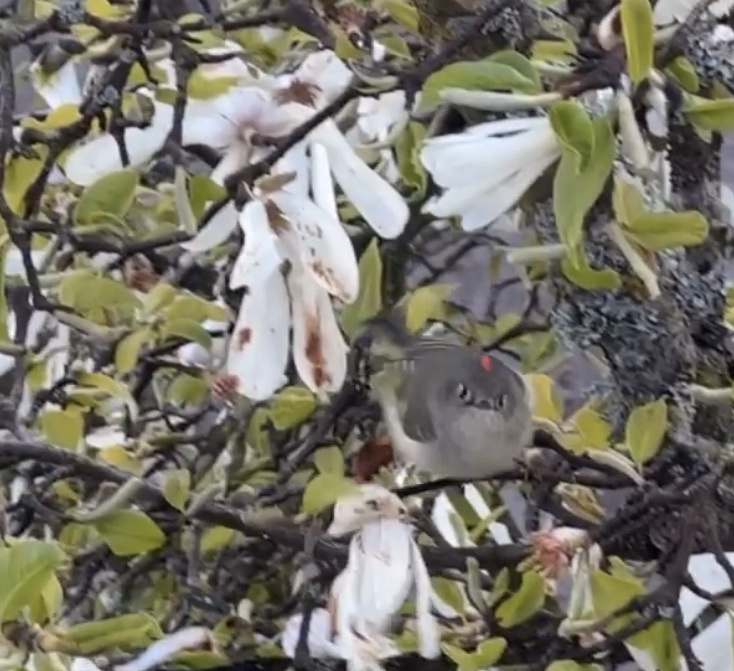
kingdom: Animalia
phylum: Chordata
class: Aves
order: Passeriformes
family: Regulidae
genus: Regulus
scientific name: Regulus calendula
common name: Ruby-crowned kinglet
